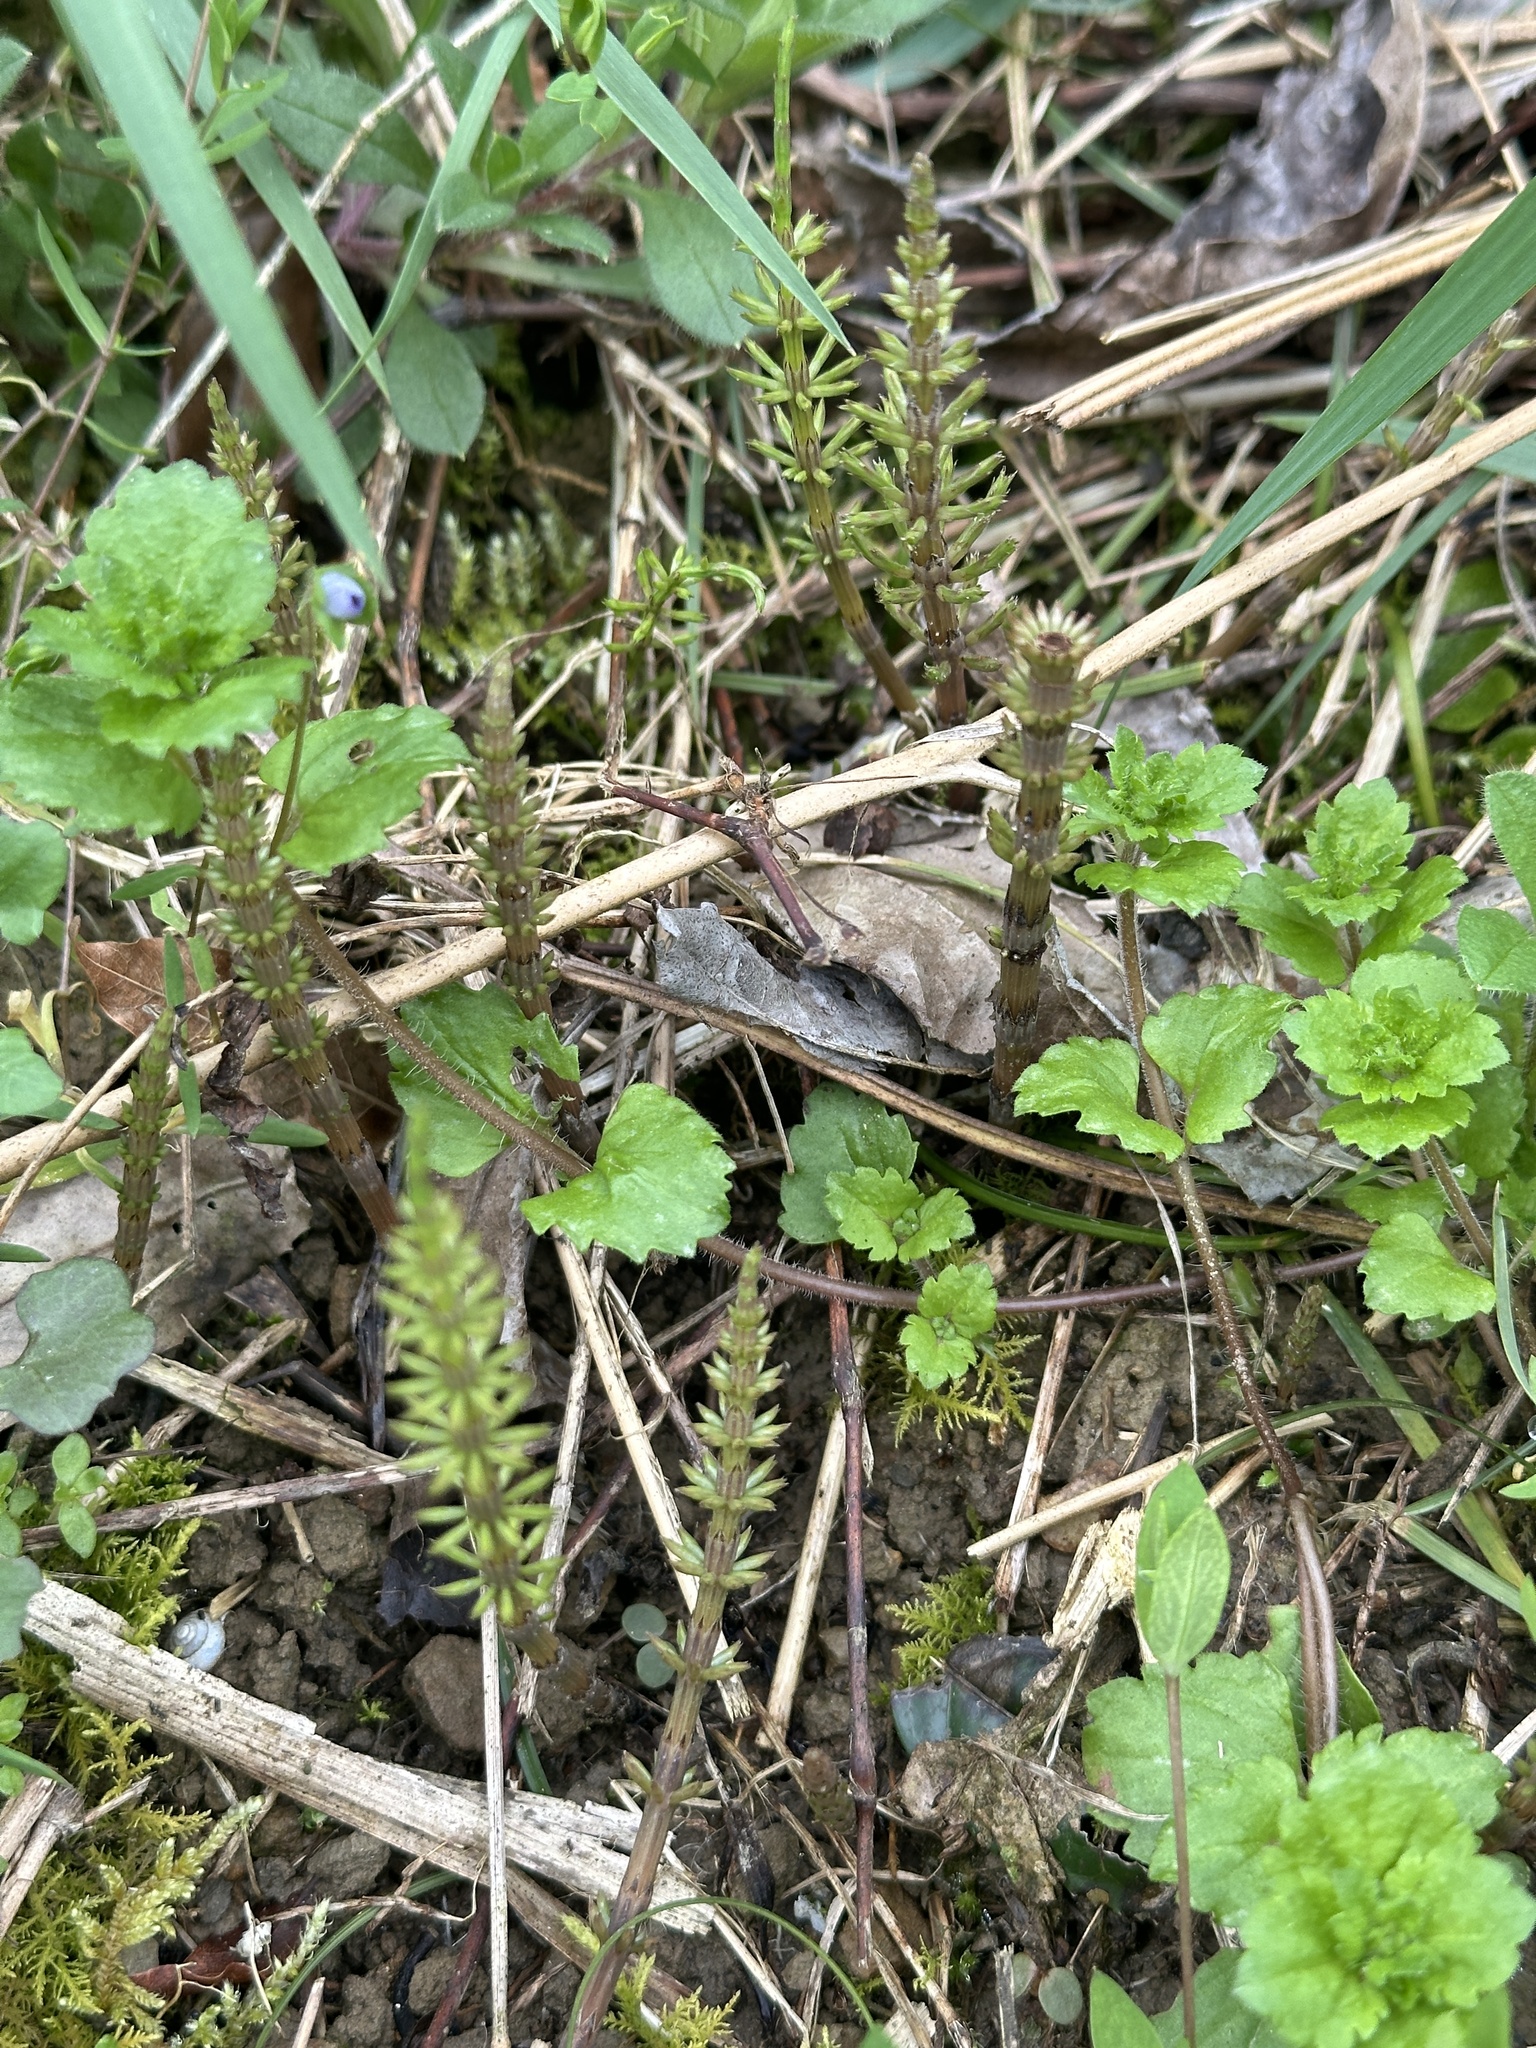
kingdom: Plantae
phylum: Tracheophyta
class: Polypodiopsida
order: Equisetales
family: Equisetaceae
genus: Equisetum
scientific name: Equisetum arvense
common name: Field horsetail
